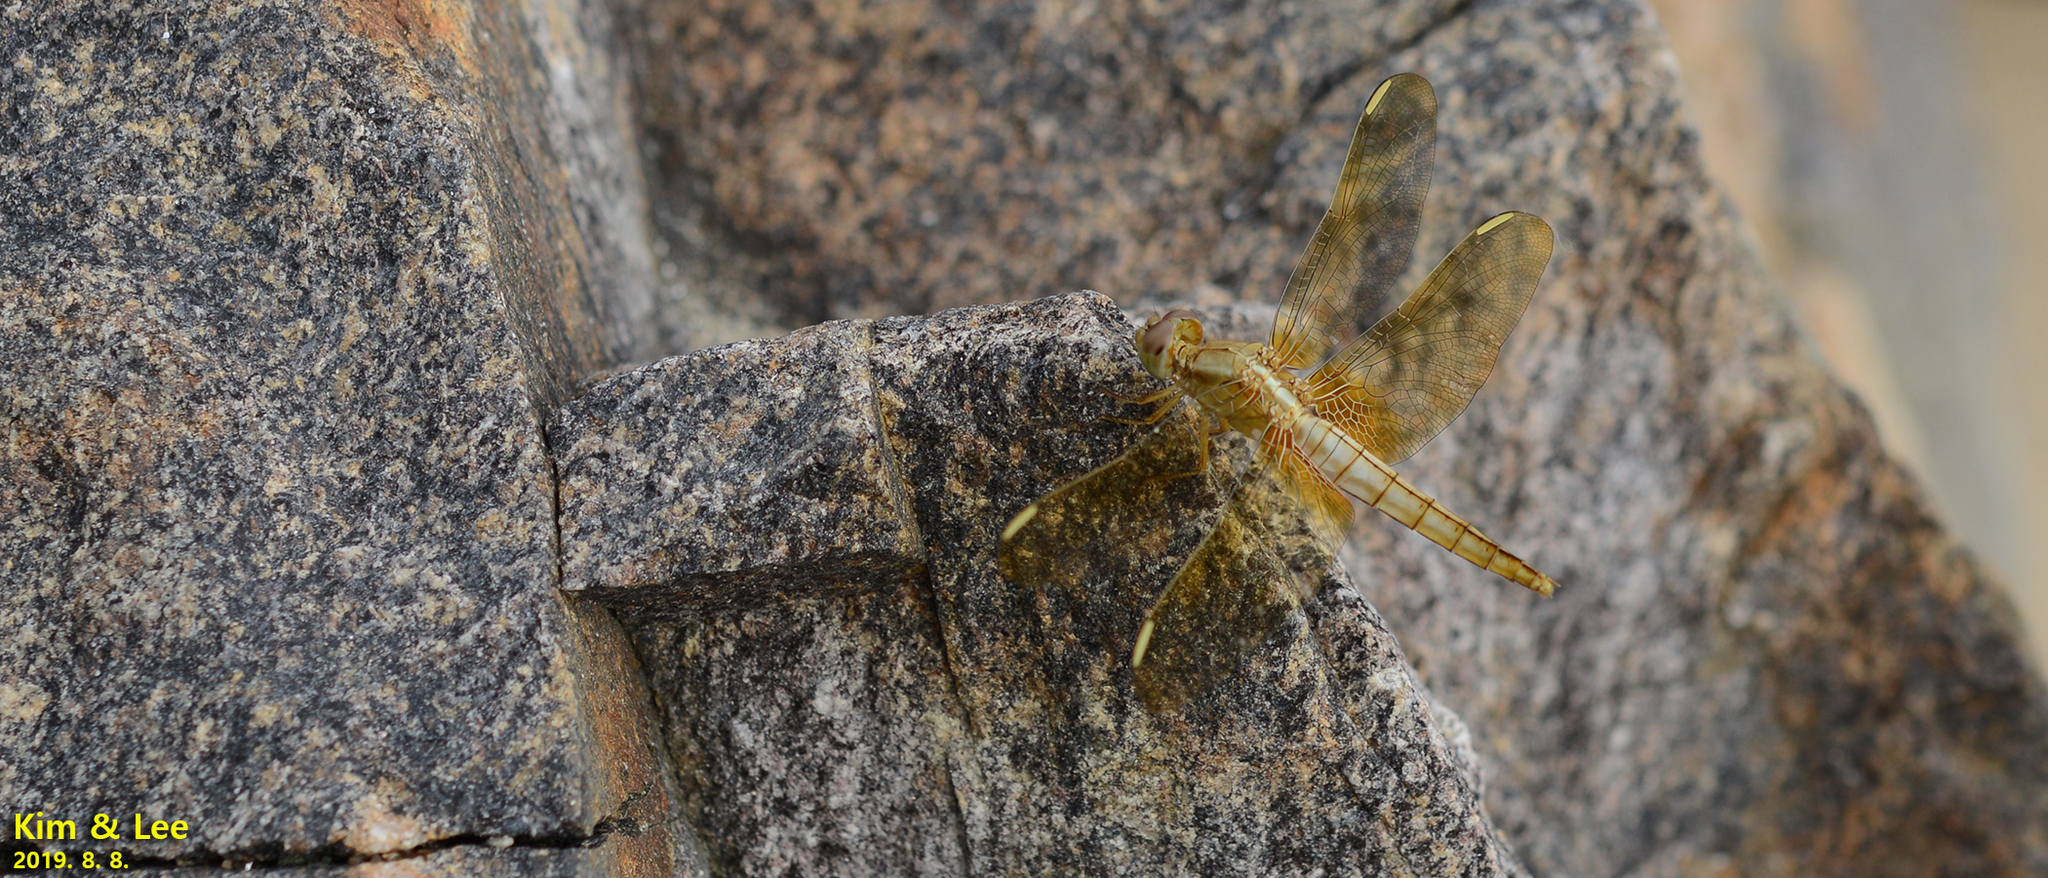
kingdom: Animalia
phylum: Arthropoda
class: Insecta
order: Odonata
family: Libellulidae
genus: Crocothemis
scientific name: Crocothemis servilia
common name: Scarlet skimmer
